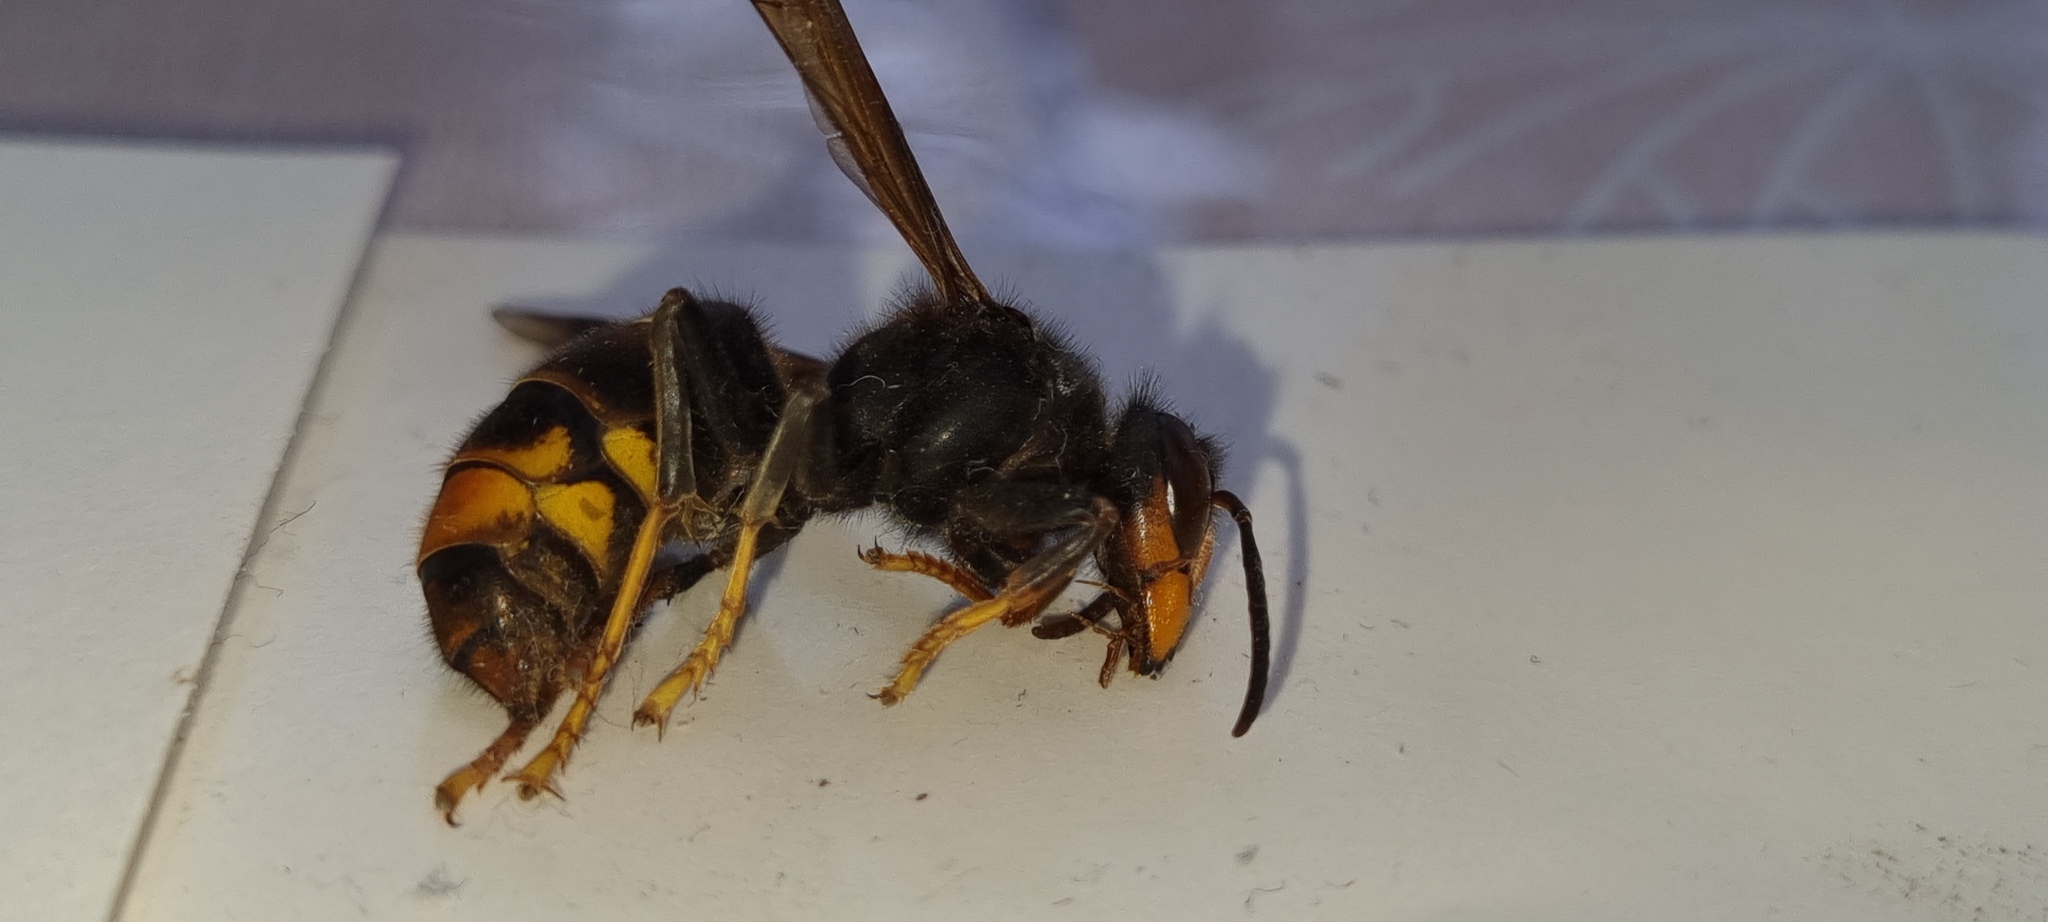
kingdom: Animalia
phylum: Arthropoda
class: Insecta
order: Hymenoptera
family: Vespidae
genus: Vespa
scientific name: Vespa velutina
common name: Asian hornet
